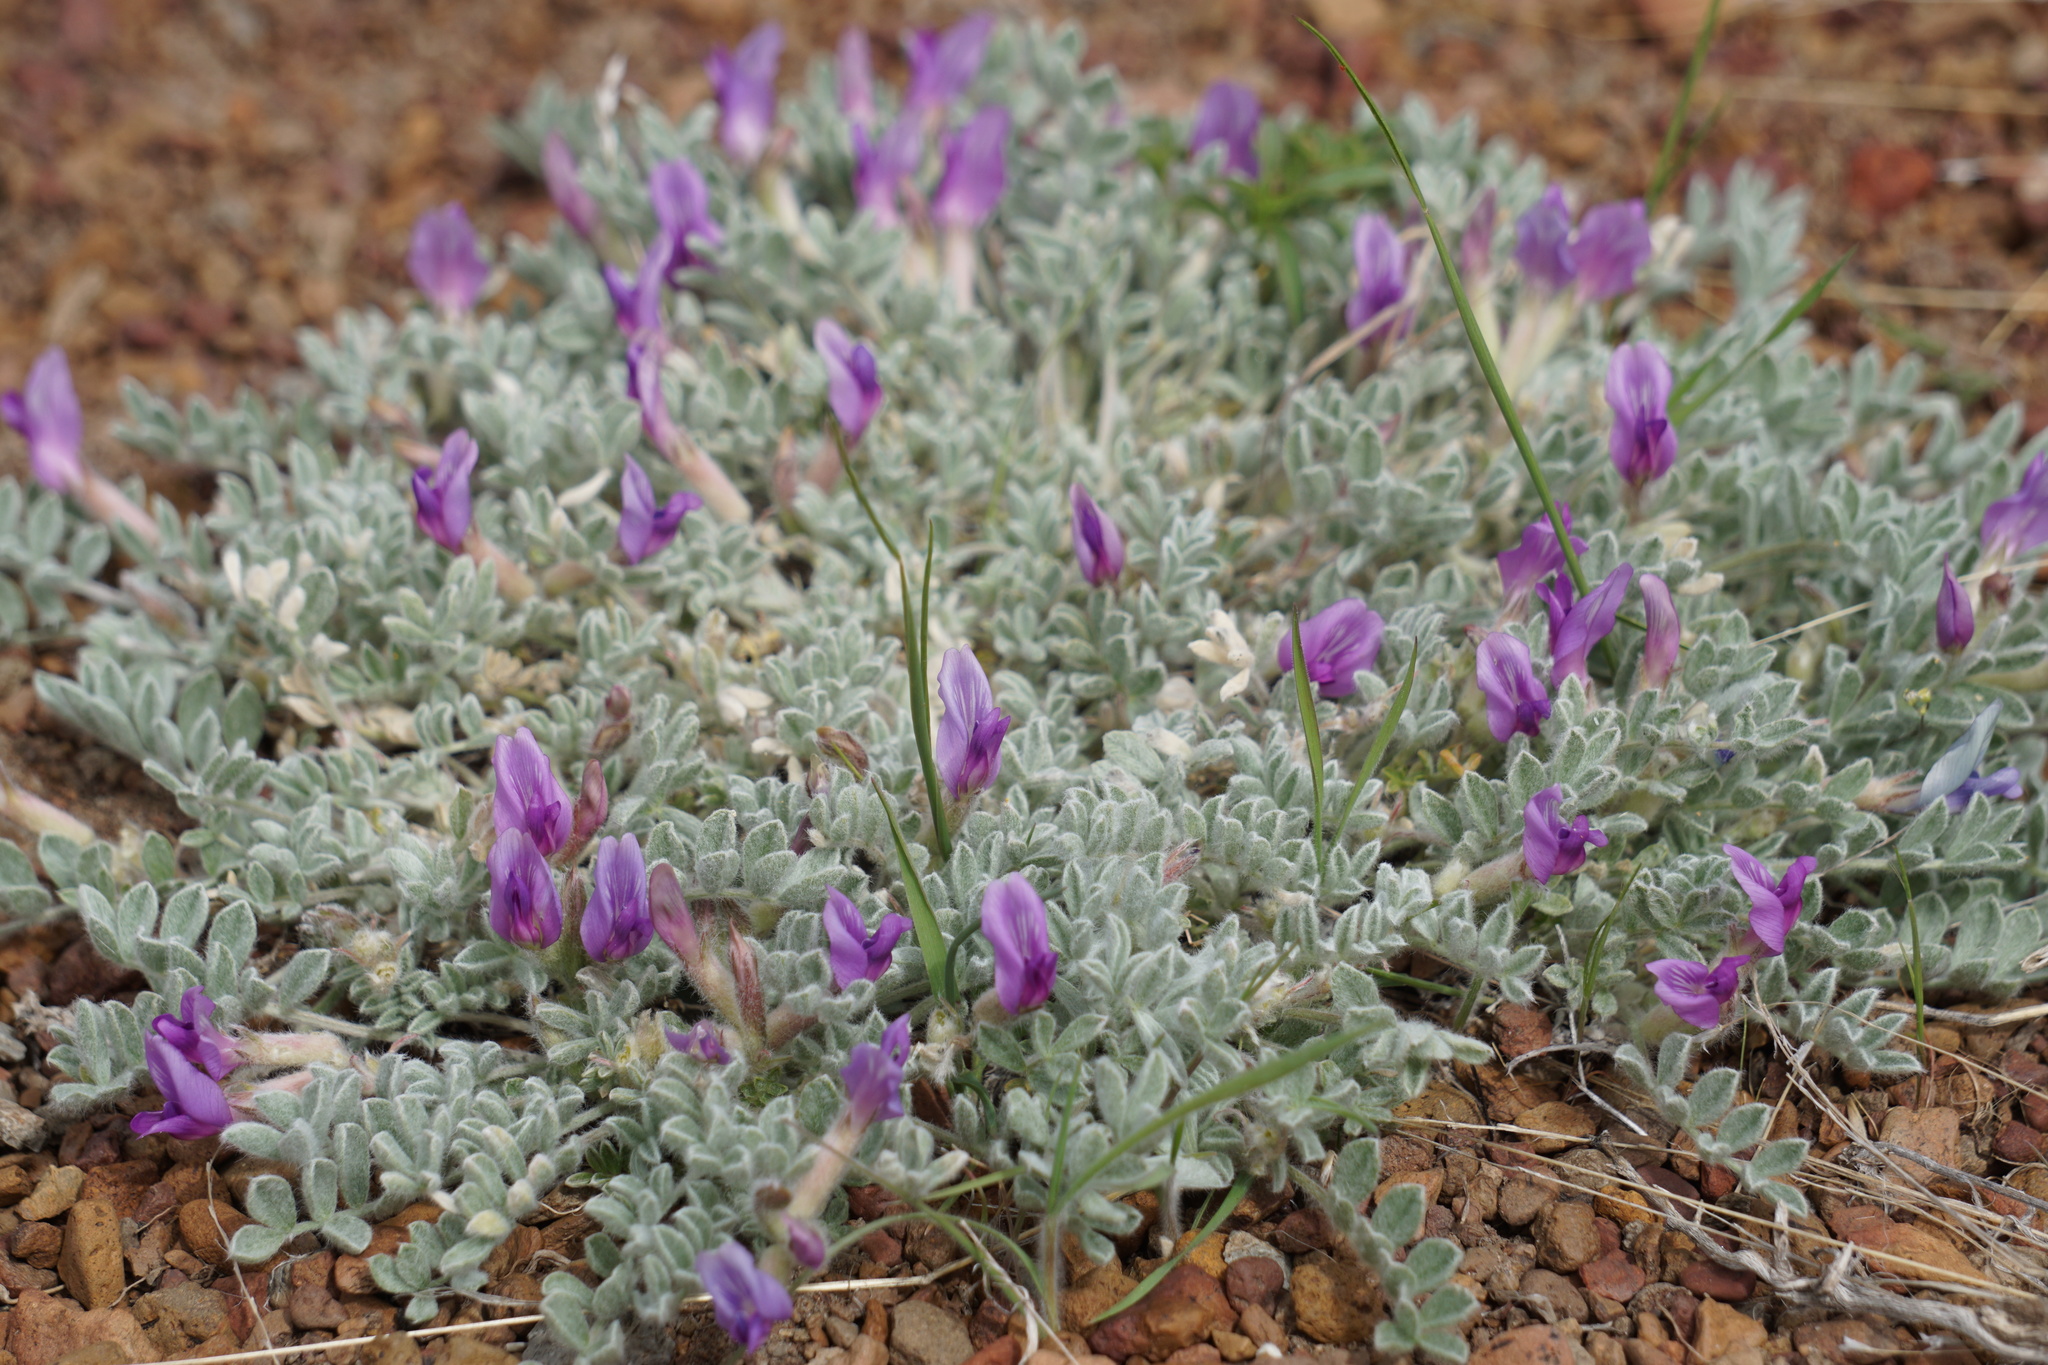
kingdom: Plantae
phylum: Tracheophyta
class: Magnoliopsida
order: Fabales
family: Fabaceae
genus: Astragalus
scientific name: Astragalus purshii
